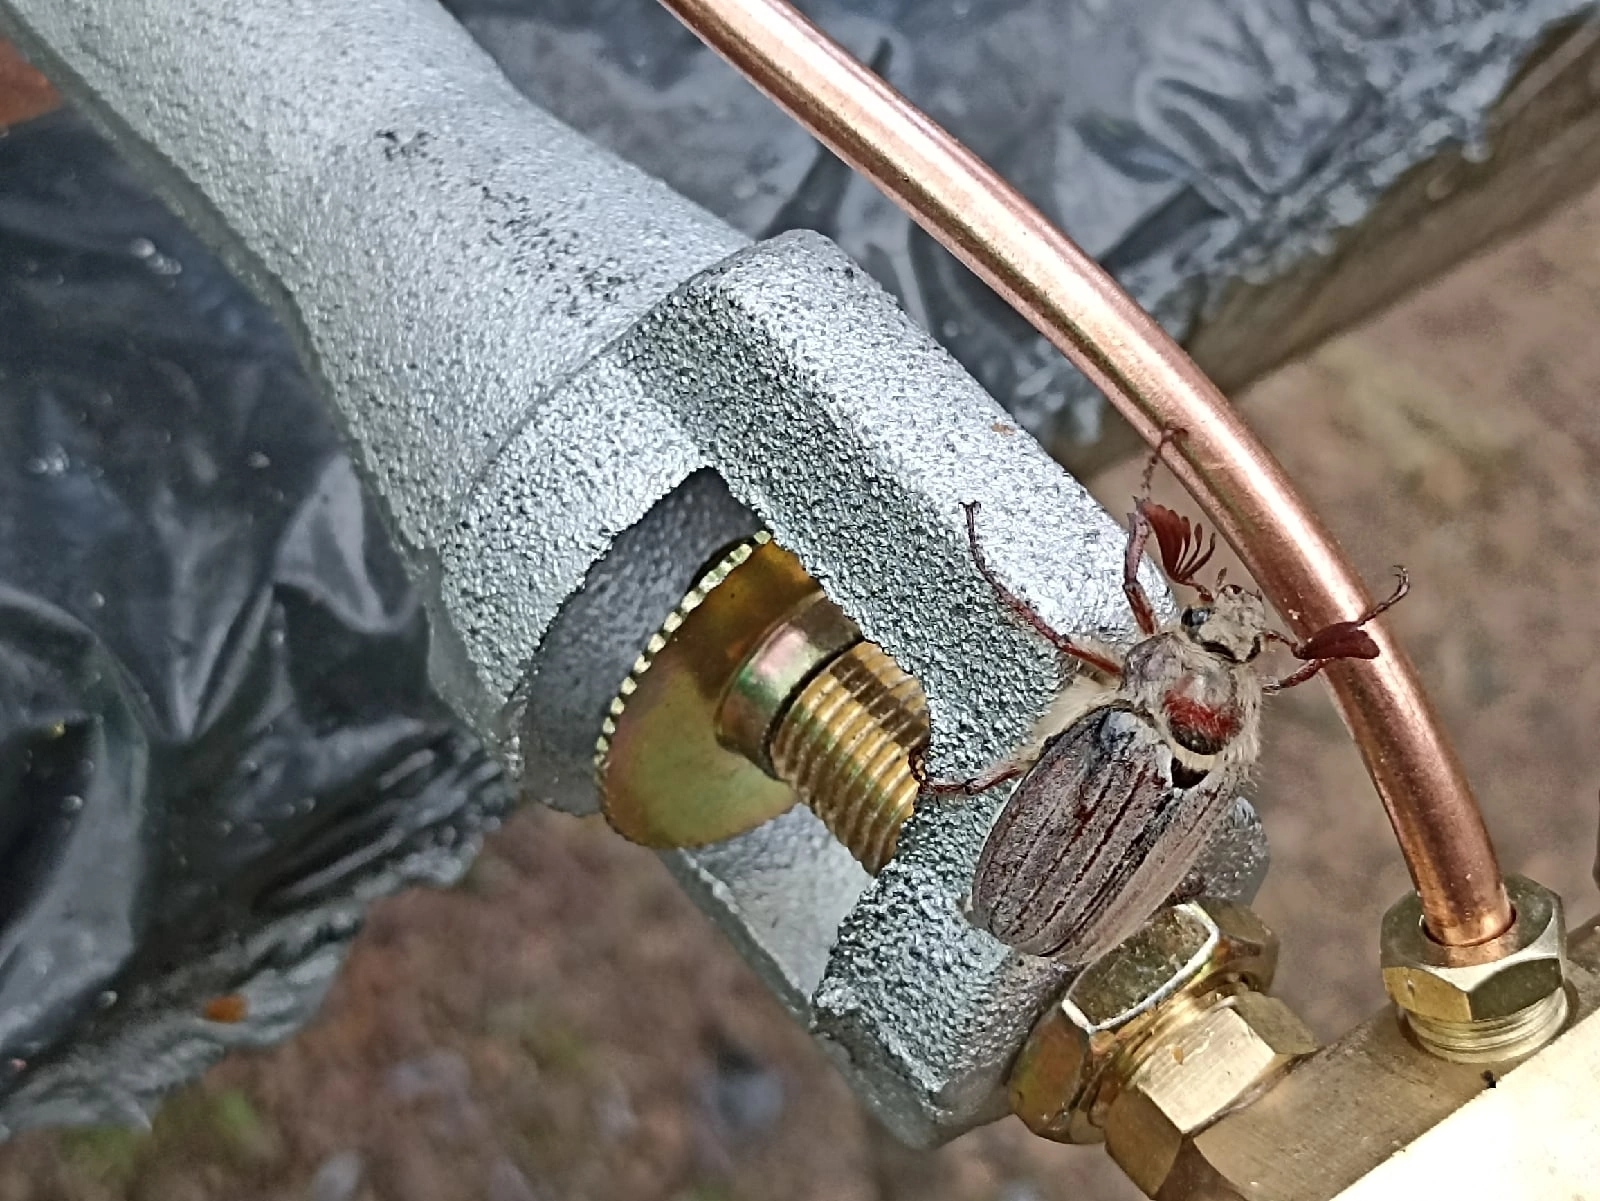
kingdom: Animalia
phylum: Arthropoda
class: Insecta
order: Coleoptera
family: Scarabaeidae
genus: Melolontha
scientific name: Melolontha hippocastani
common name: Chestnut cockchafer
